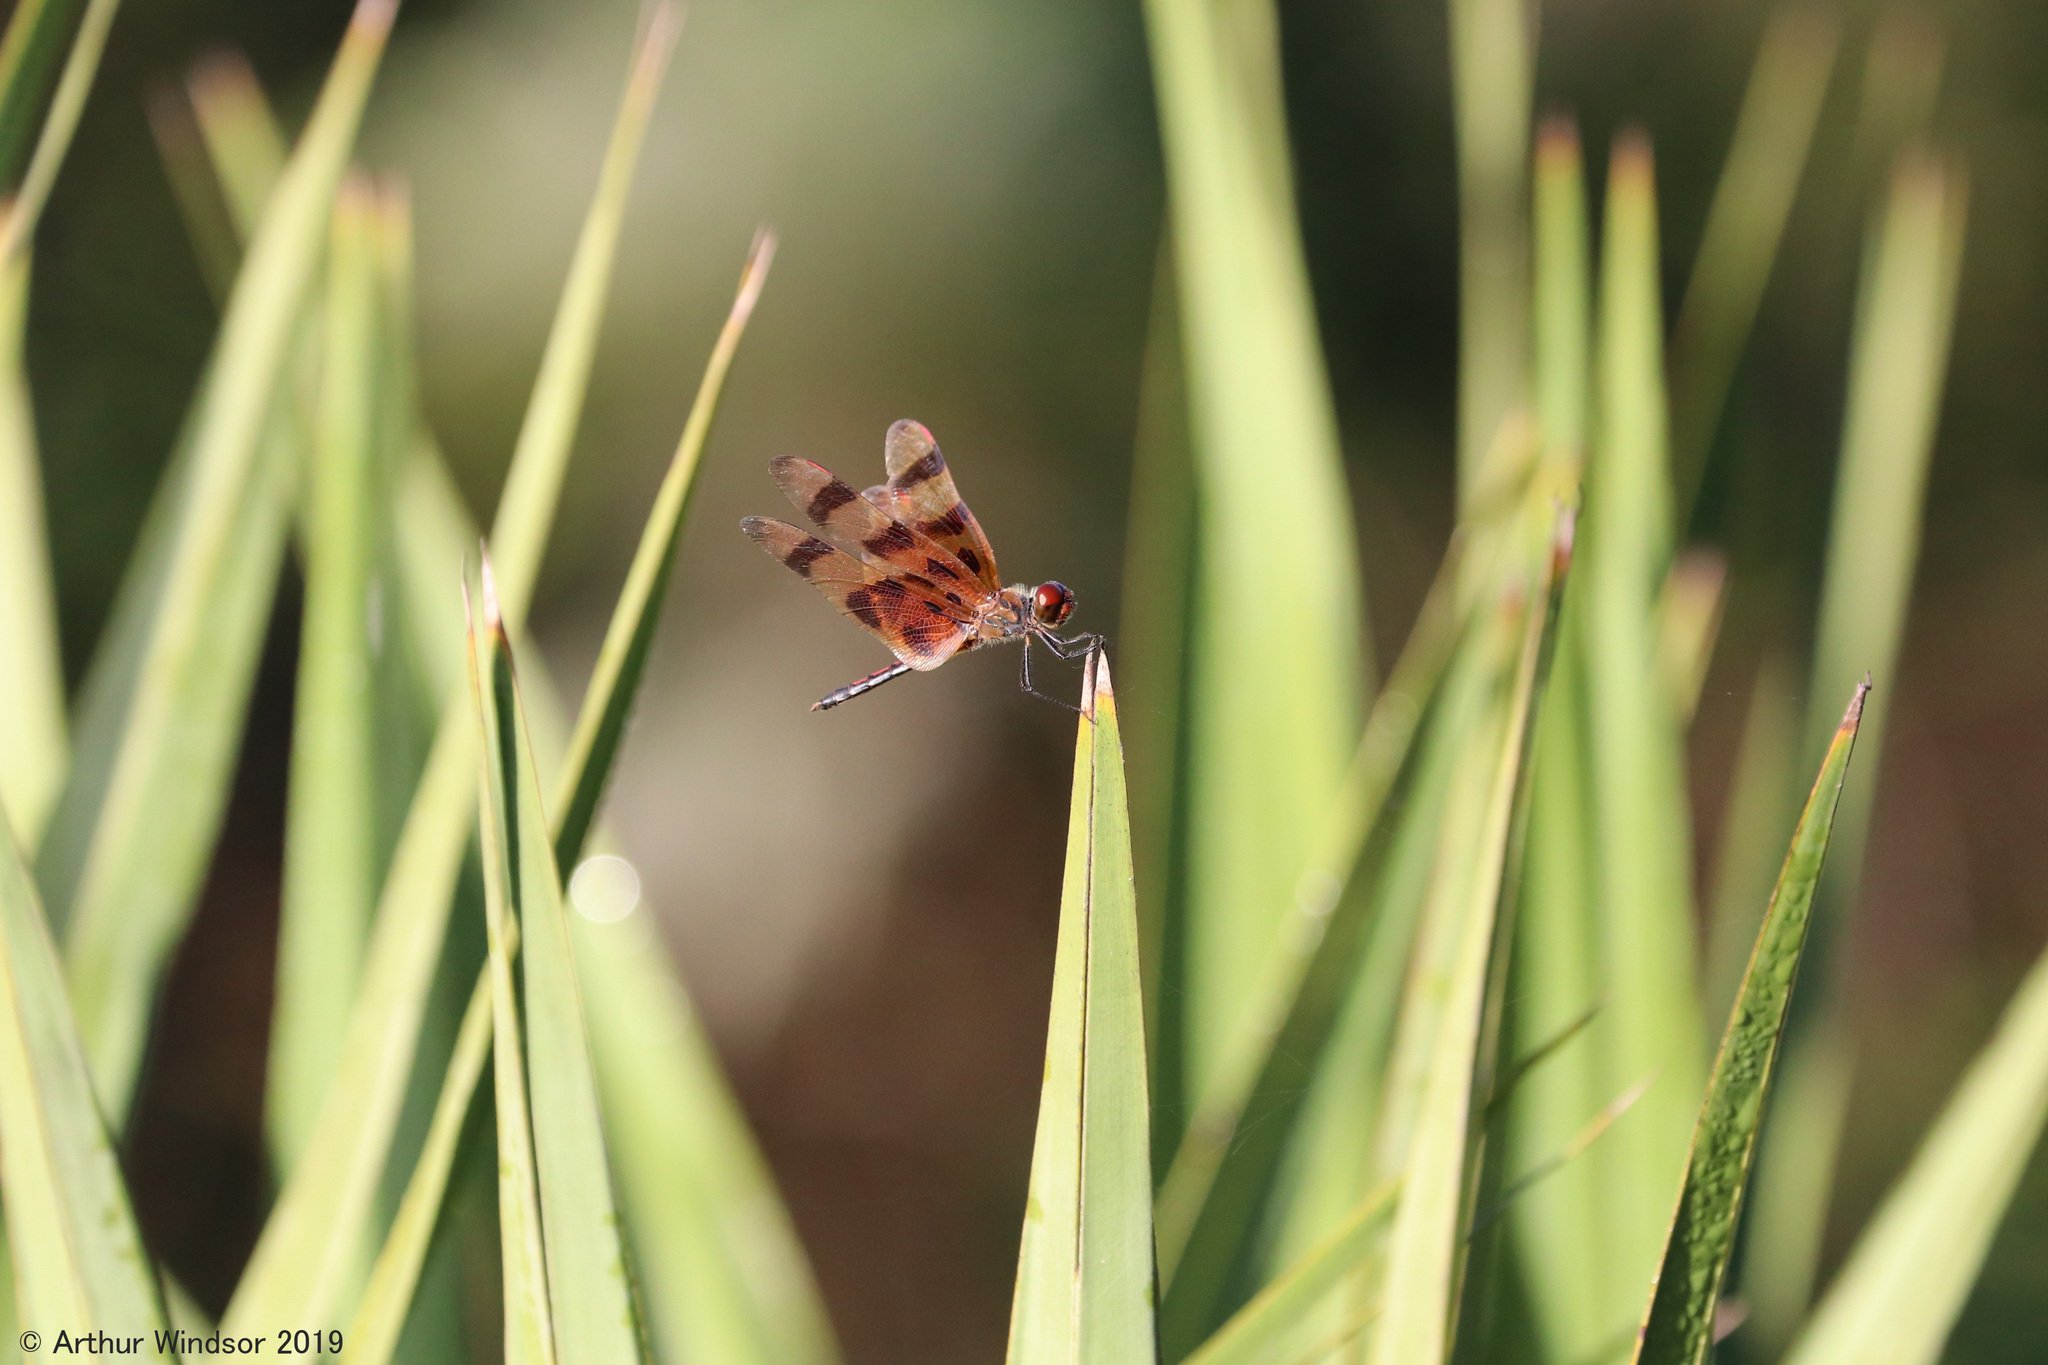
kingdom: Animalia
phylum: Arthropoda
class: Insecta
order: Odonata
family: Libellulidae
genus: Celithemis
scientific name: Celithemis eponina
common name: Halloween pennant
